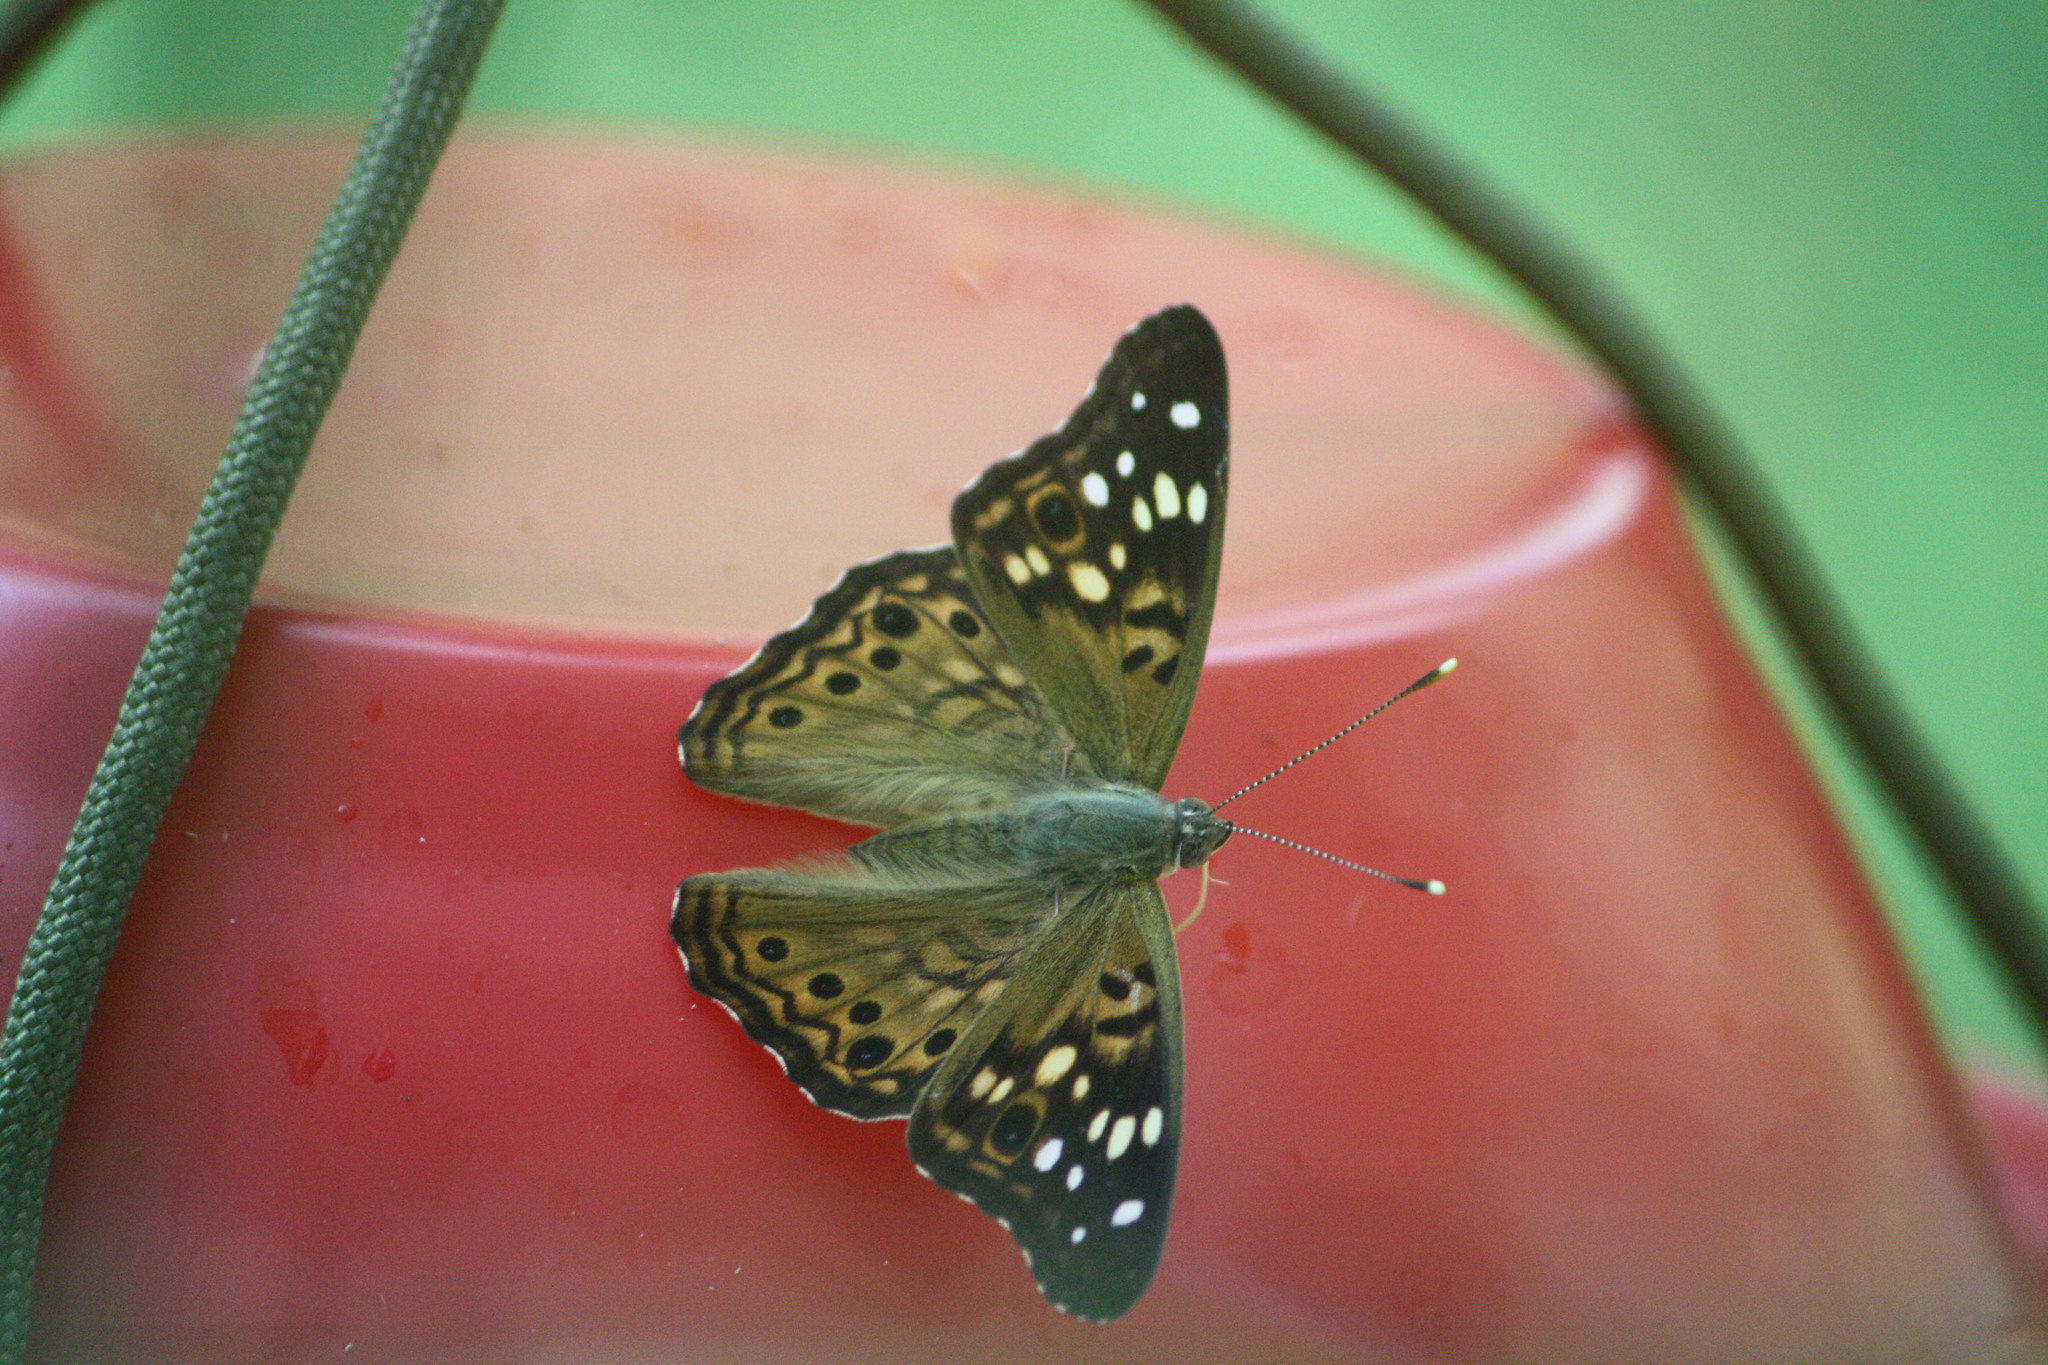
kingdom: Animalia
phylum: Arthropoda
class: Insecta
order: Lepidoptera
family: Nymphalidae
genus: Asterocampa
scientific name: Asterocampa celtis
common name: Hackberry emperor
